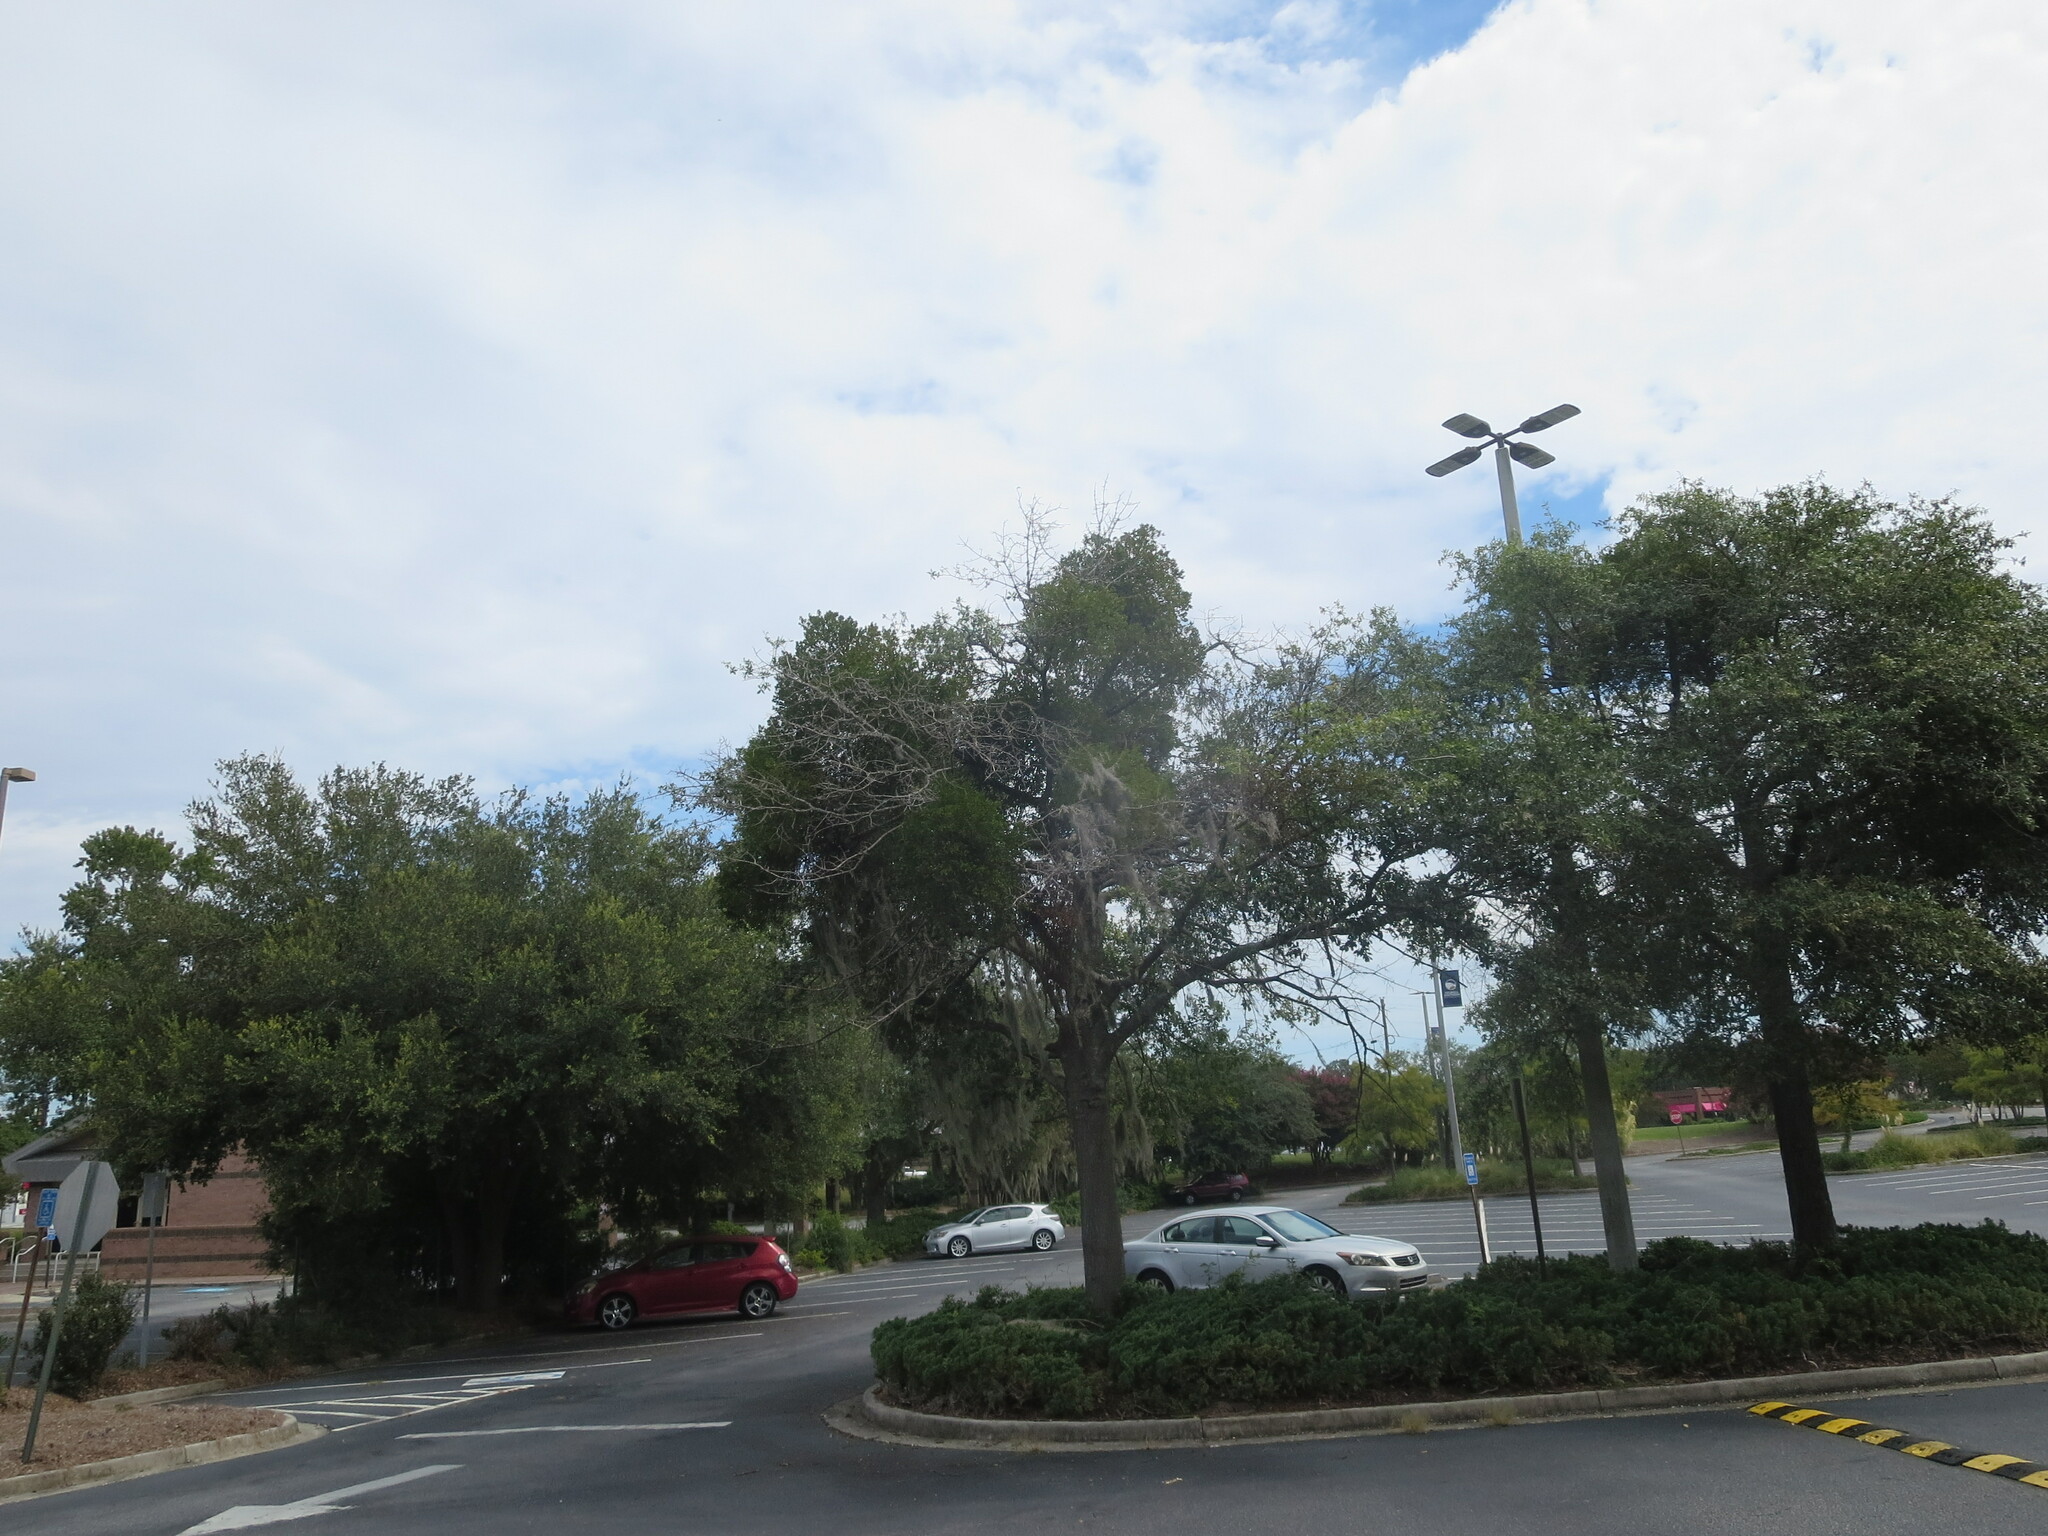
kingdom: Plantae
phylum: Tracheophyta
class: Magnoliopsida
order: Santalales
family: Viscaceae
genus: Phoradendron
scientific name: Phoradendron leucarpum
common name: Pacific mistletoe
